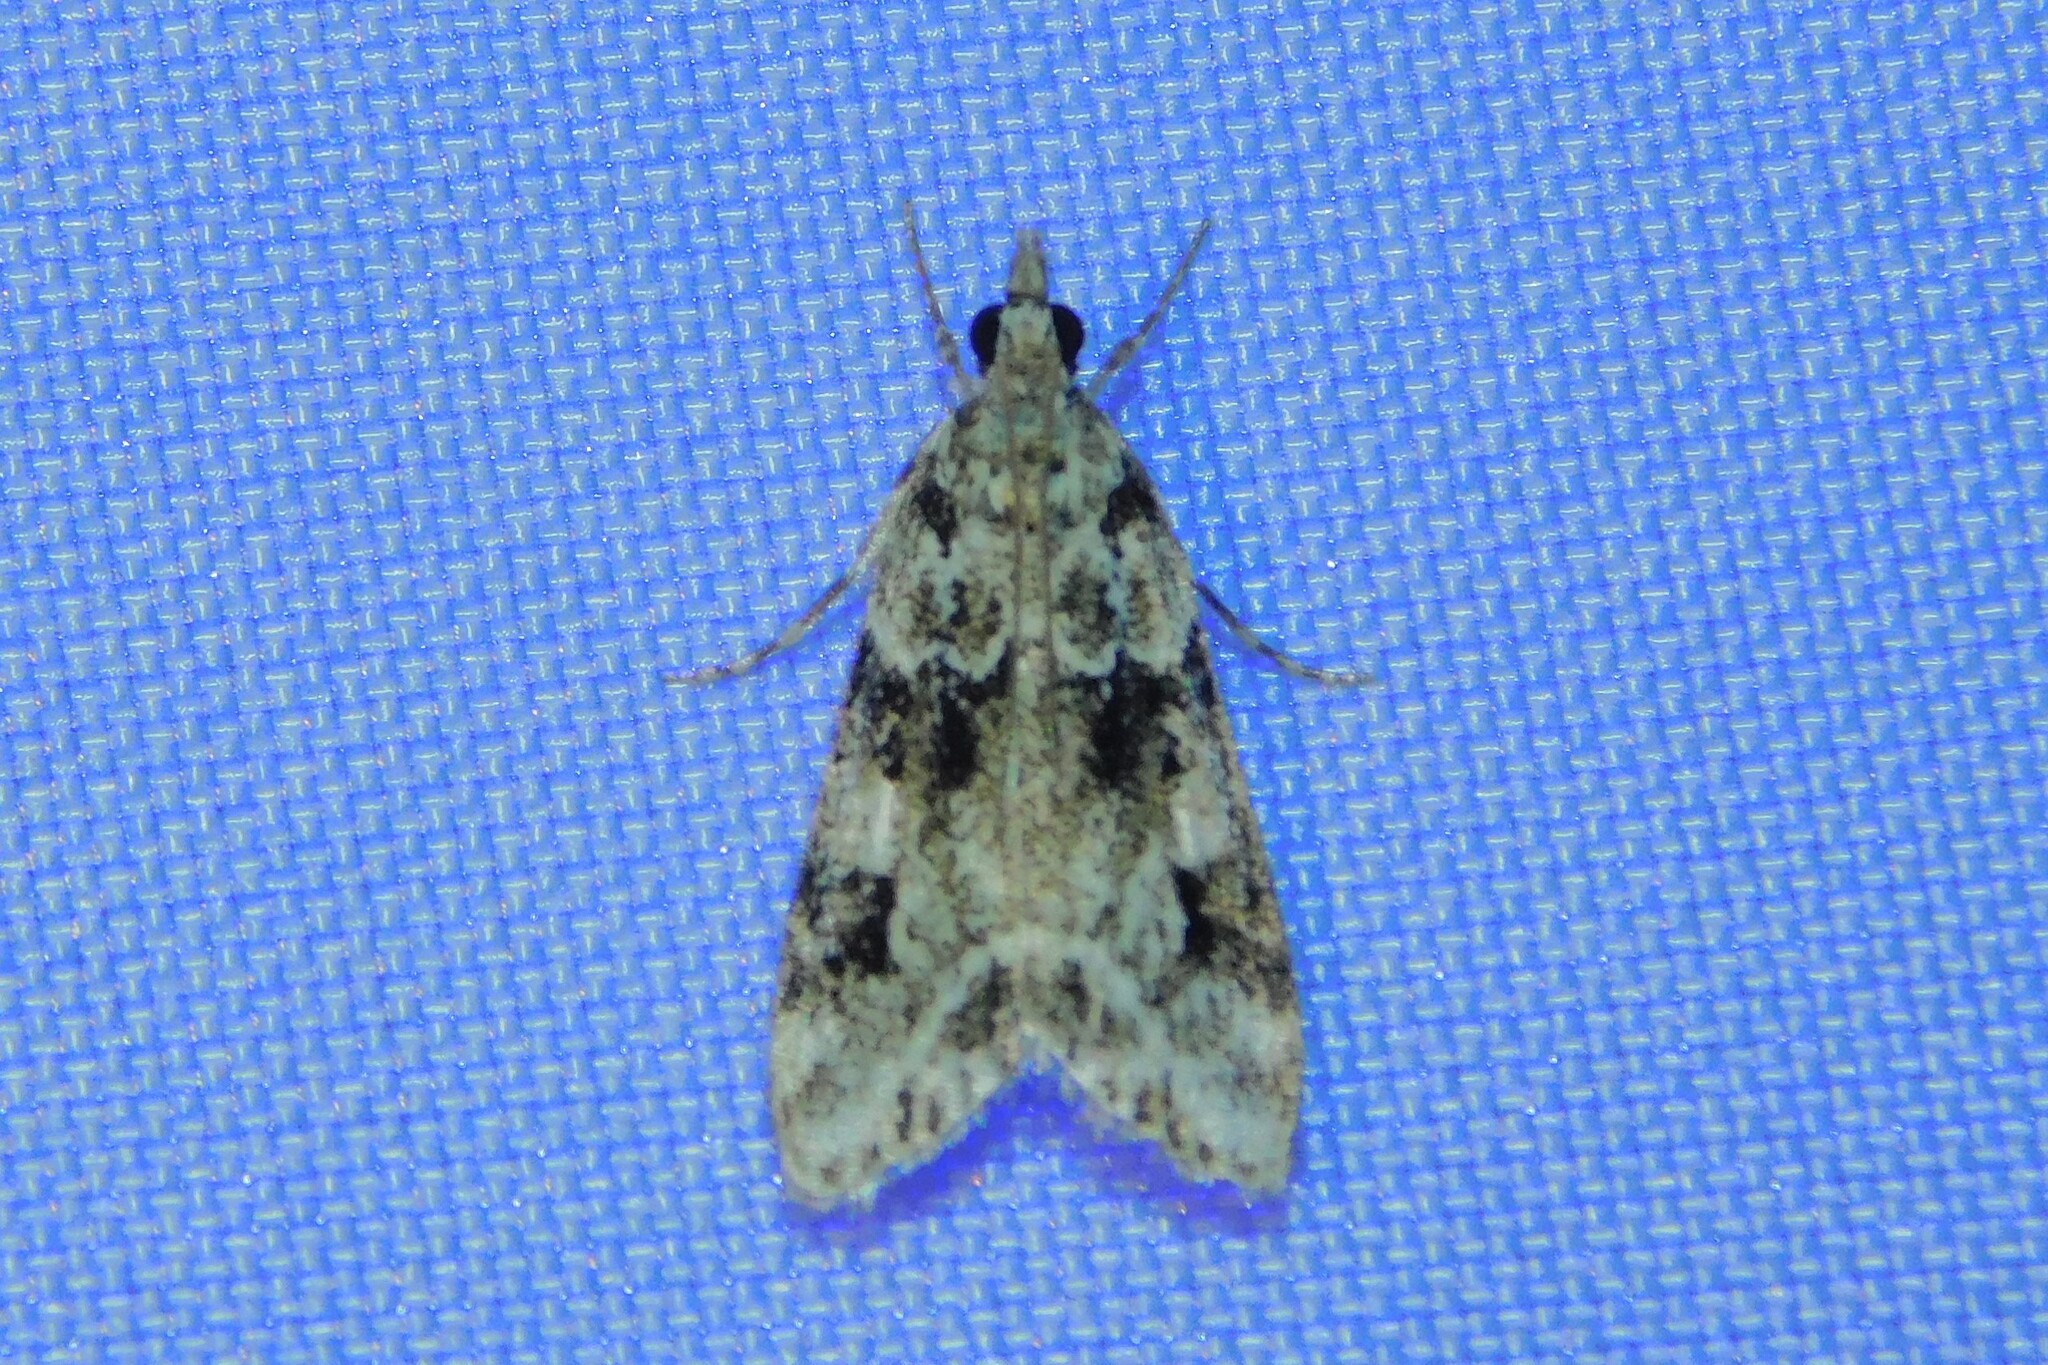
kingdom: Animalia
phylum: Arthropoda
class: Insecta
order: Lepidoptera
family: Crambidae
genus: Eudonia
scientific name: Eudonia delunella
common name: Pied grey
